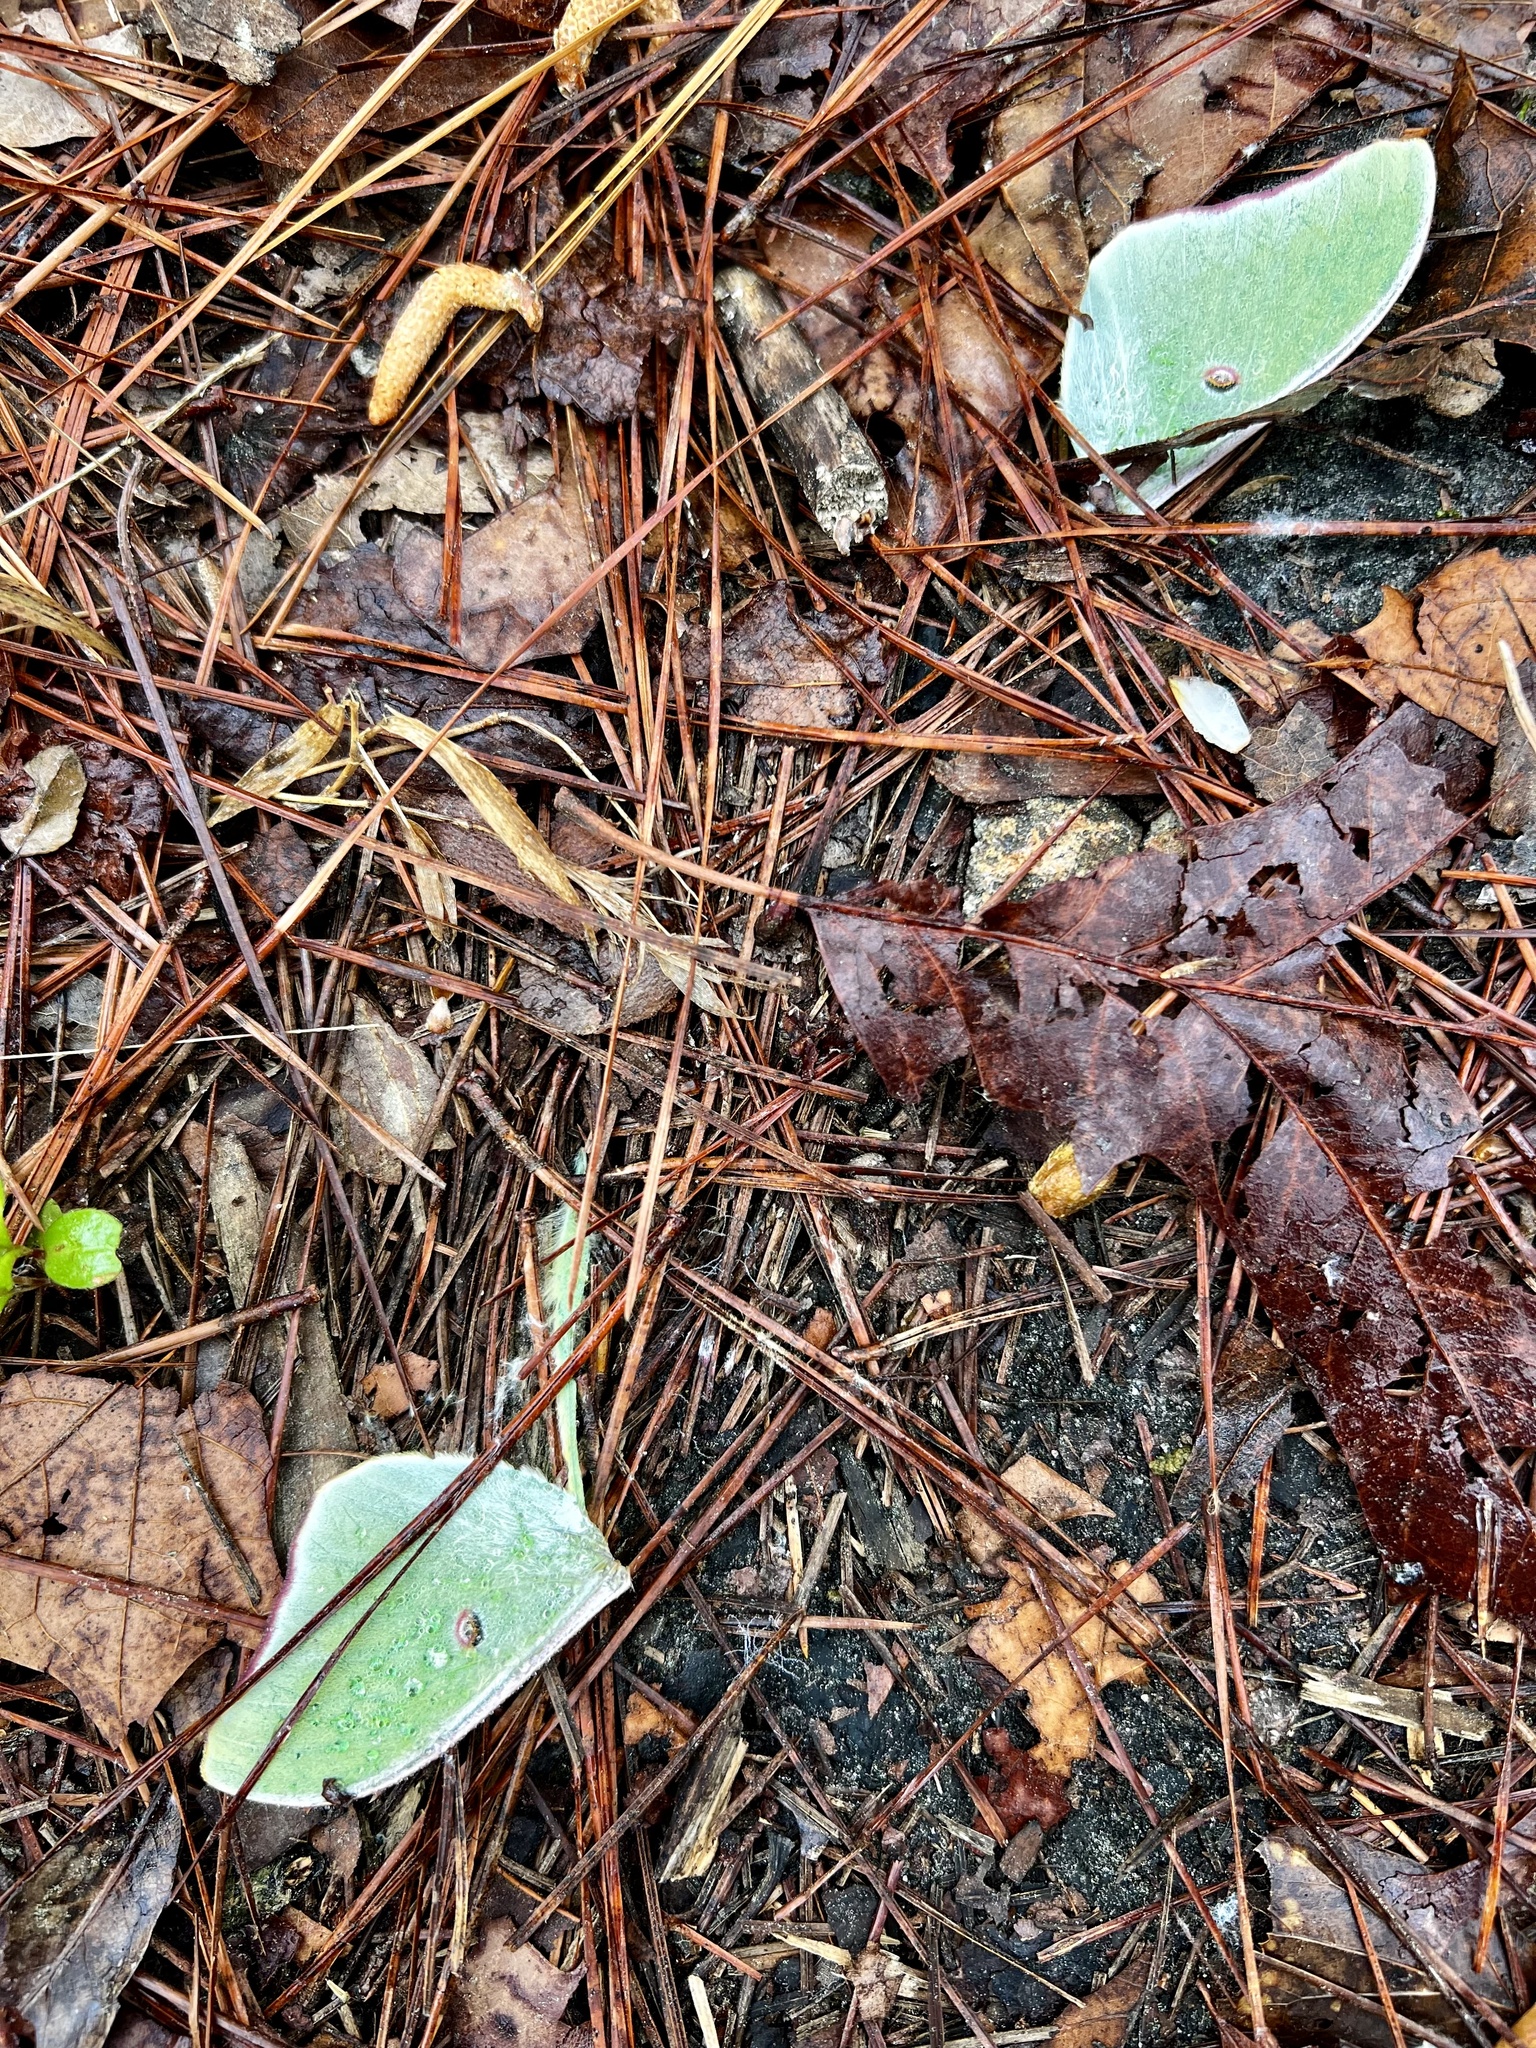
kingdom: Animalia
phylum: Arthropoda
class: Insecta
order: Lepidoptera
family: Saturniidae
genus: Actias
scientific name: Actias luna
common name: Luna moth
